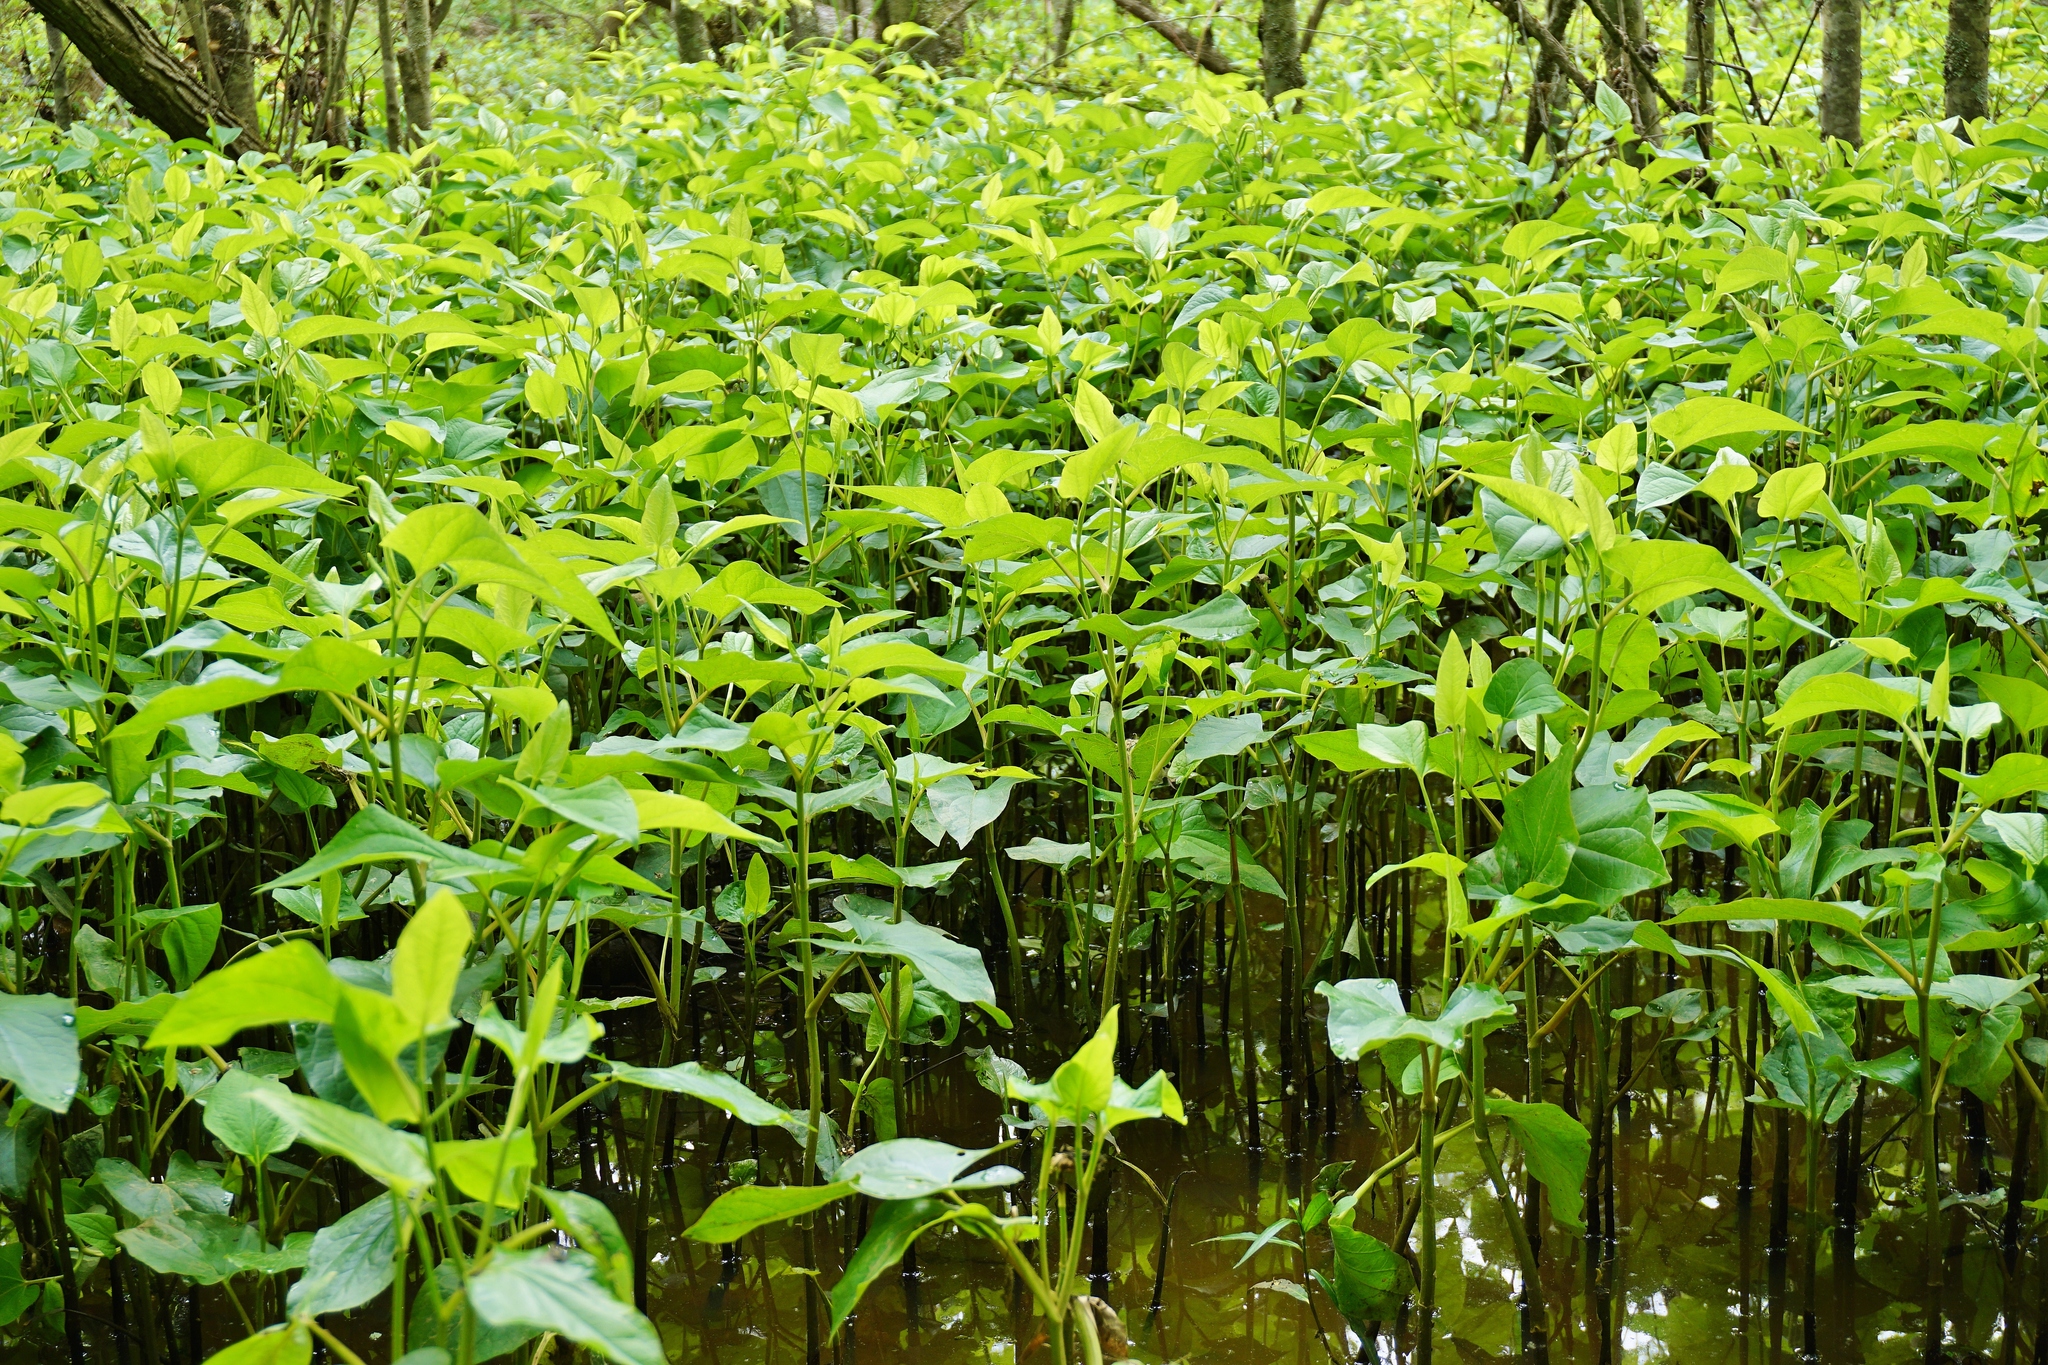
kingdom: Plantae
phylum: Tracheophyta
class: Magnoliopsida
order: Piperales
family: Saururaceae
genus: Saururus
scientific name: Saururus cernuus
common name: Lizard's-tail
